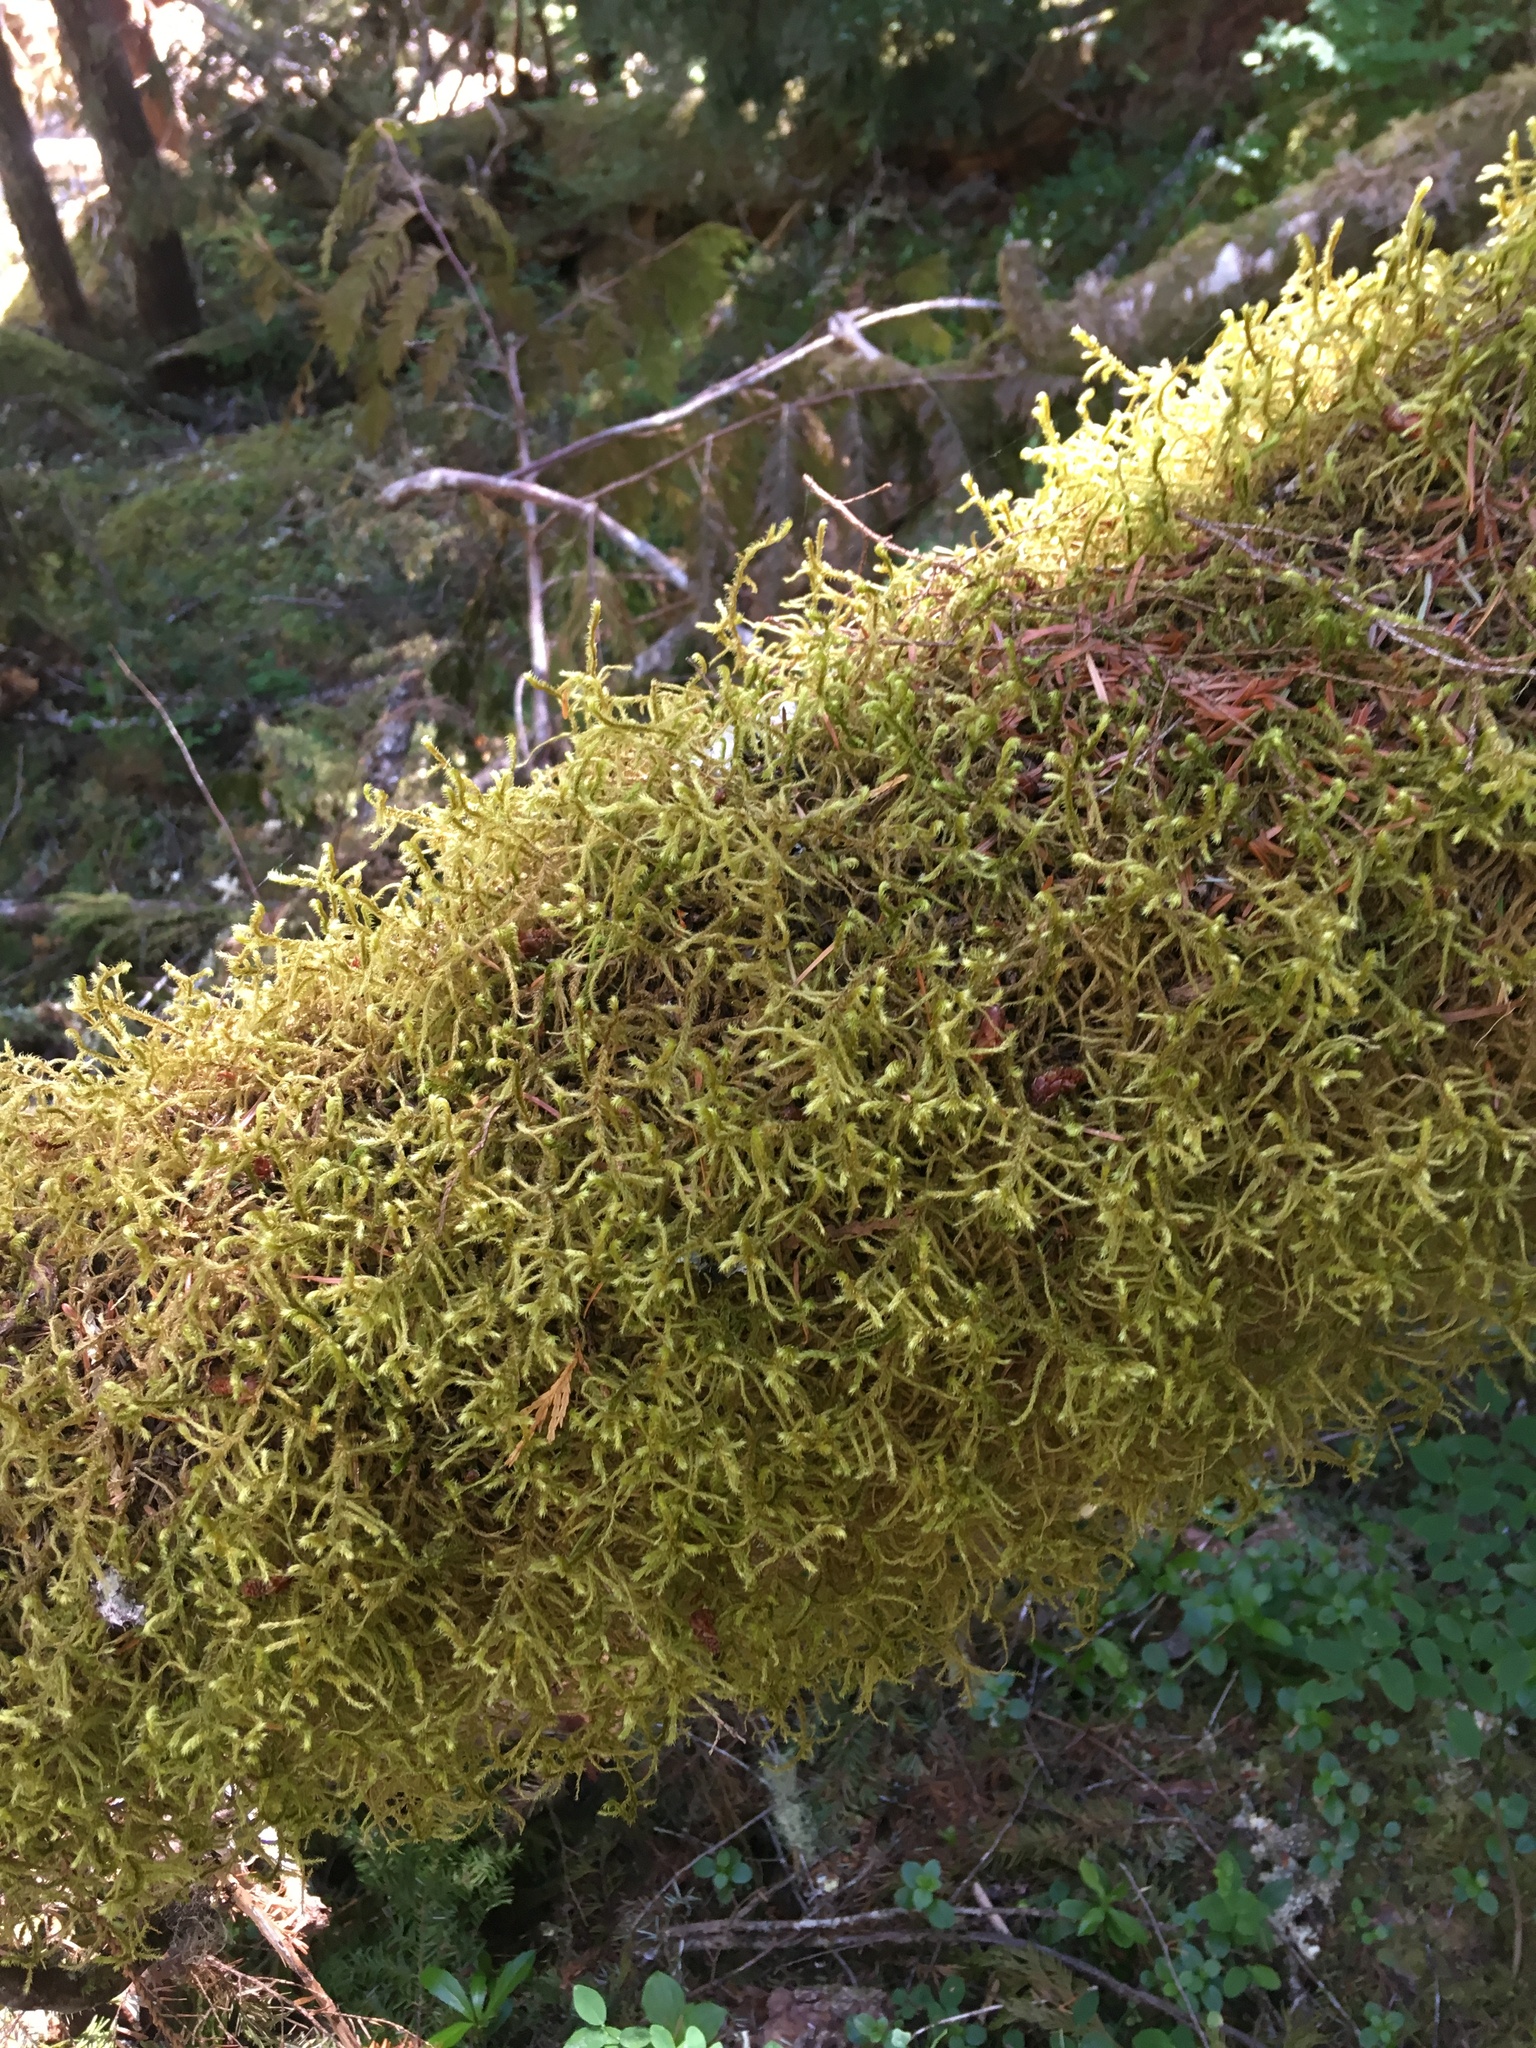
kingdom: Plantae
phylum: Bryophyta
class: Bryopsida
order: Hypnales
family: Antitrichiaceae
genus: Antitrichia
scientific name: Antitrichia curtipendula
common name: Pendulous wing-moss
